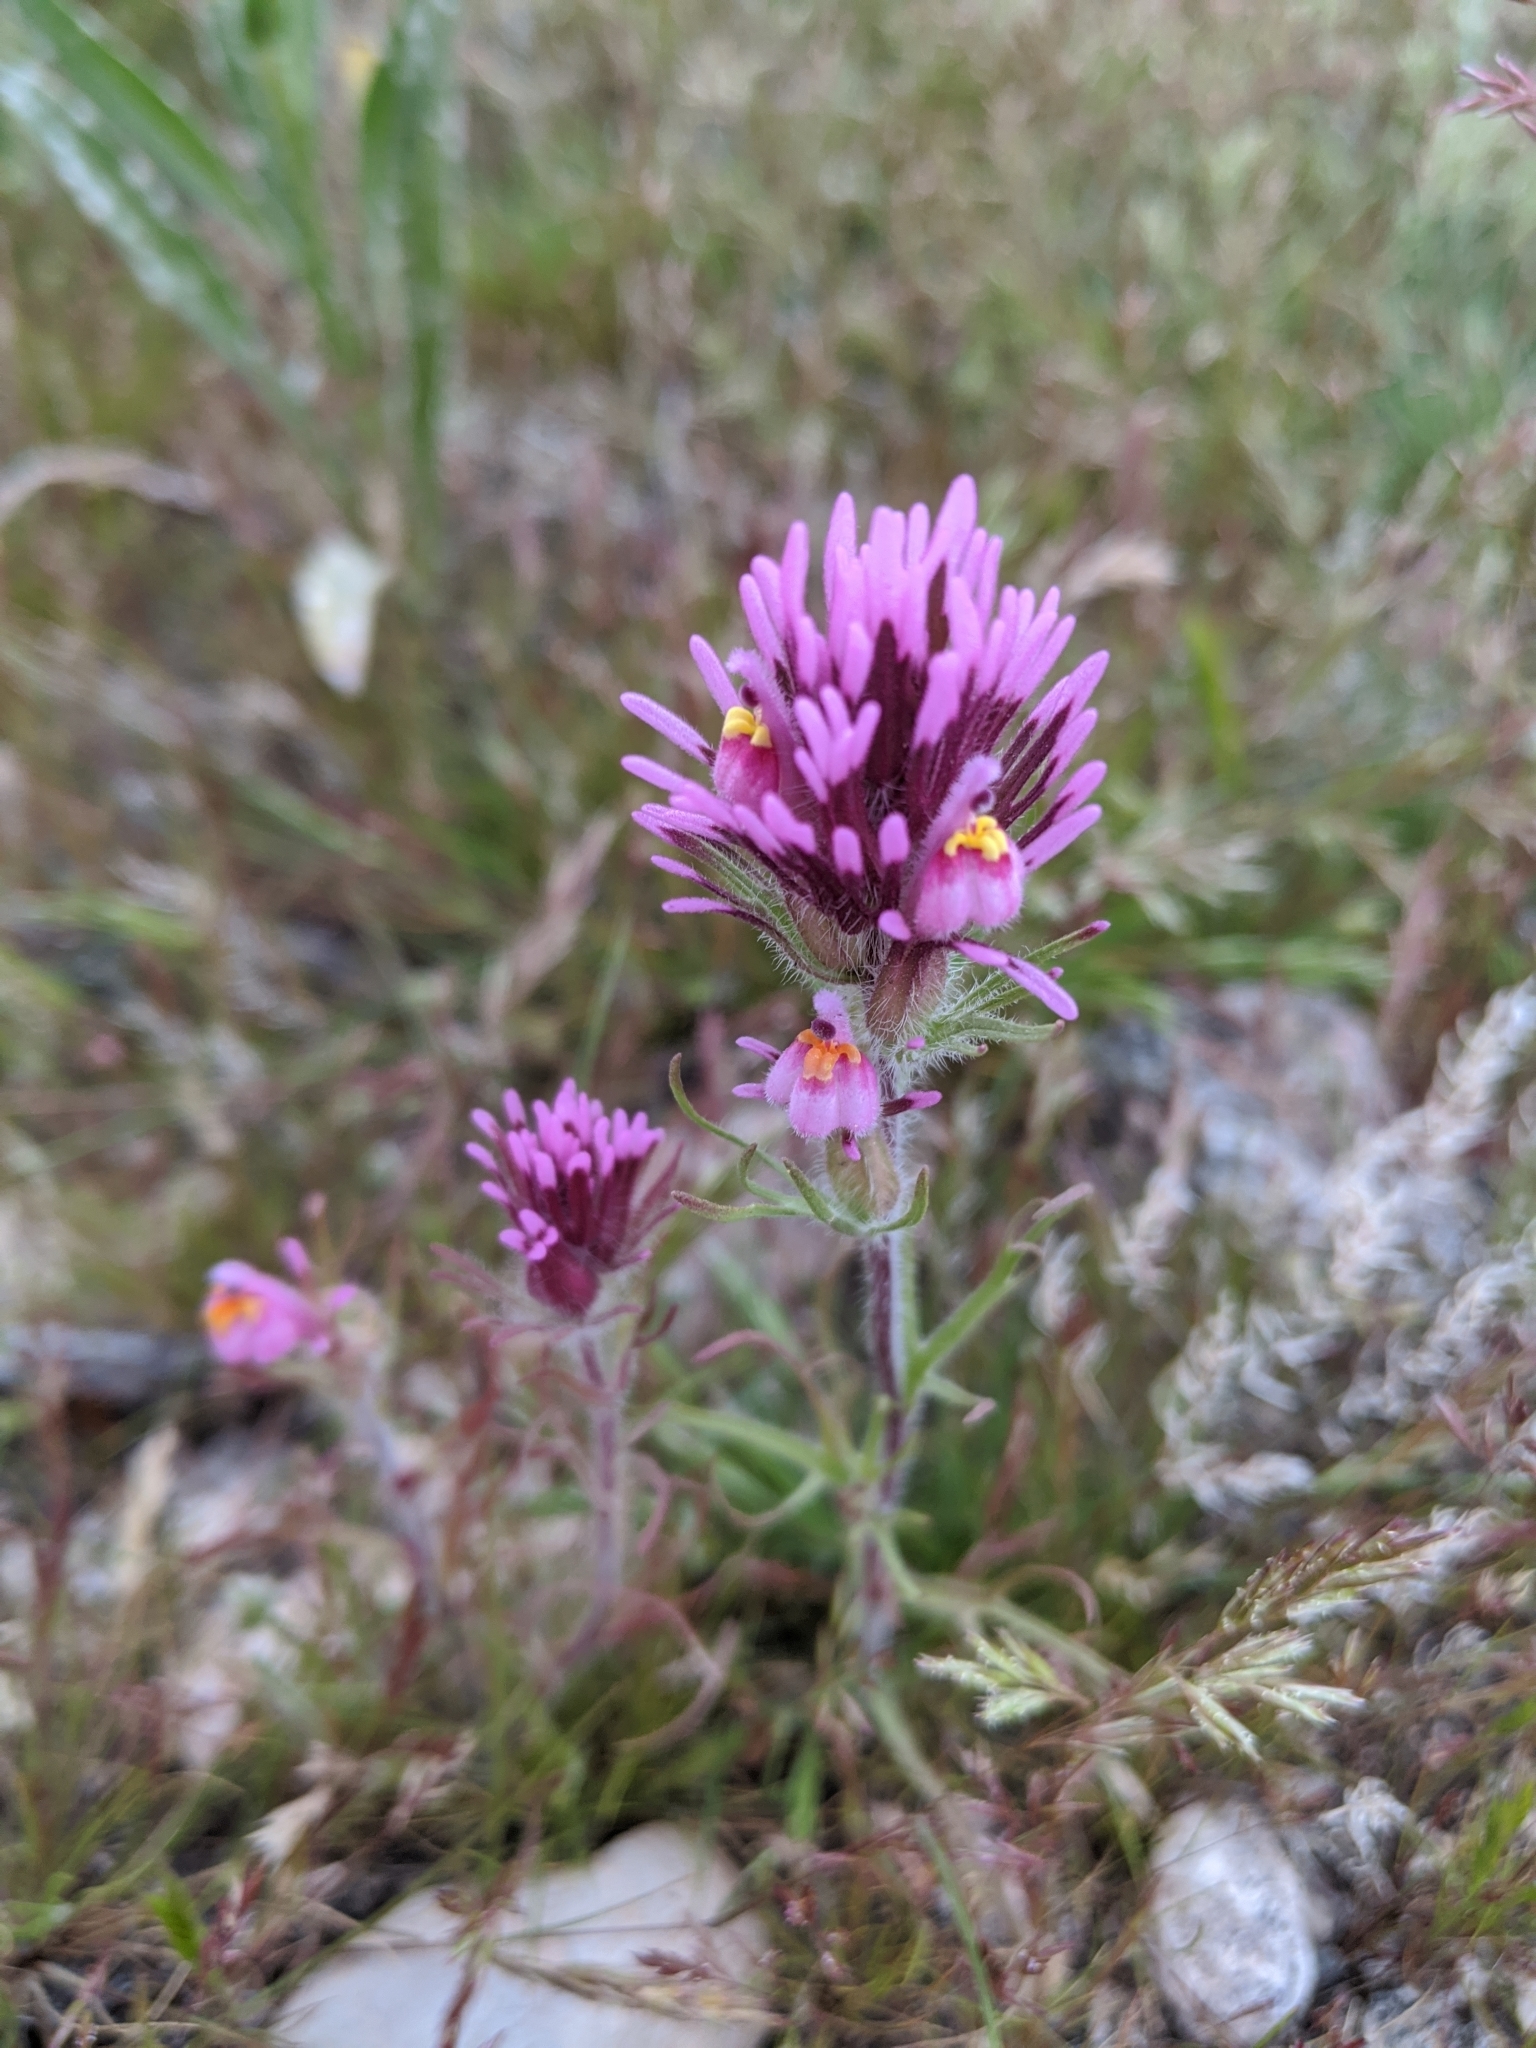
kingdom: Plantae
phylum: Tracheophyta
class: Magnoliopsida
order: Lamiales
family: Orobanchaceae
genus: Castilleja
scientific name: Castilleja exserta
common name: Purple owl-clover
